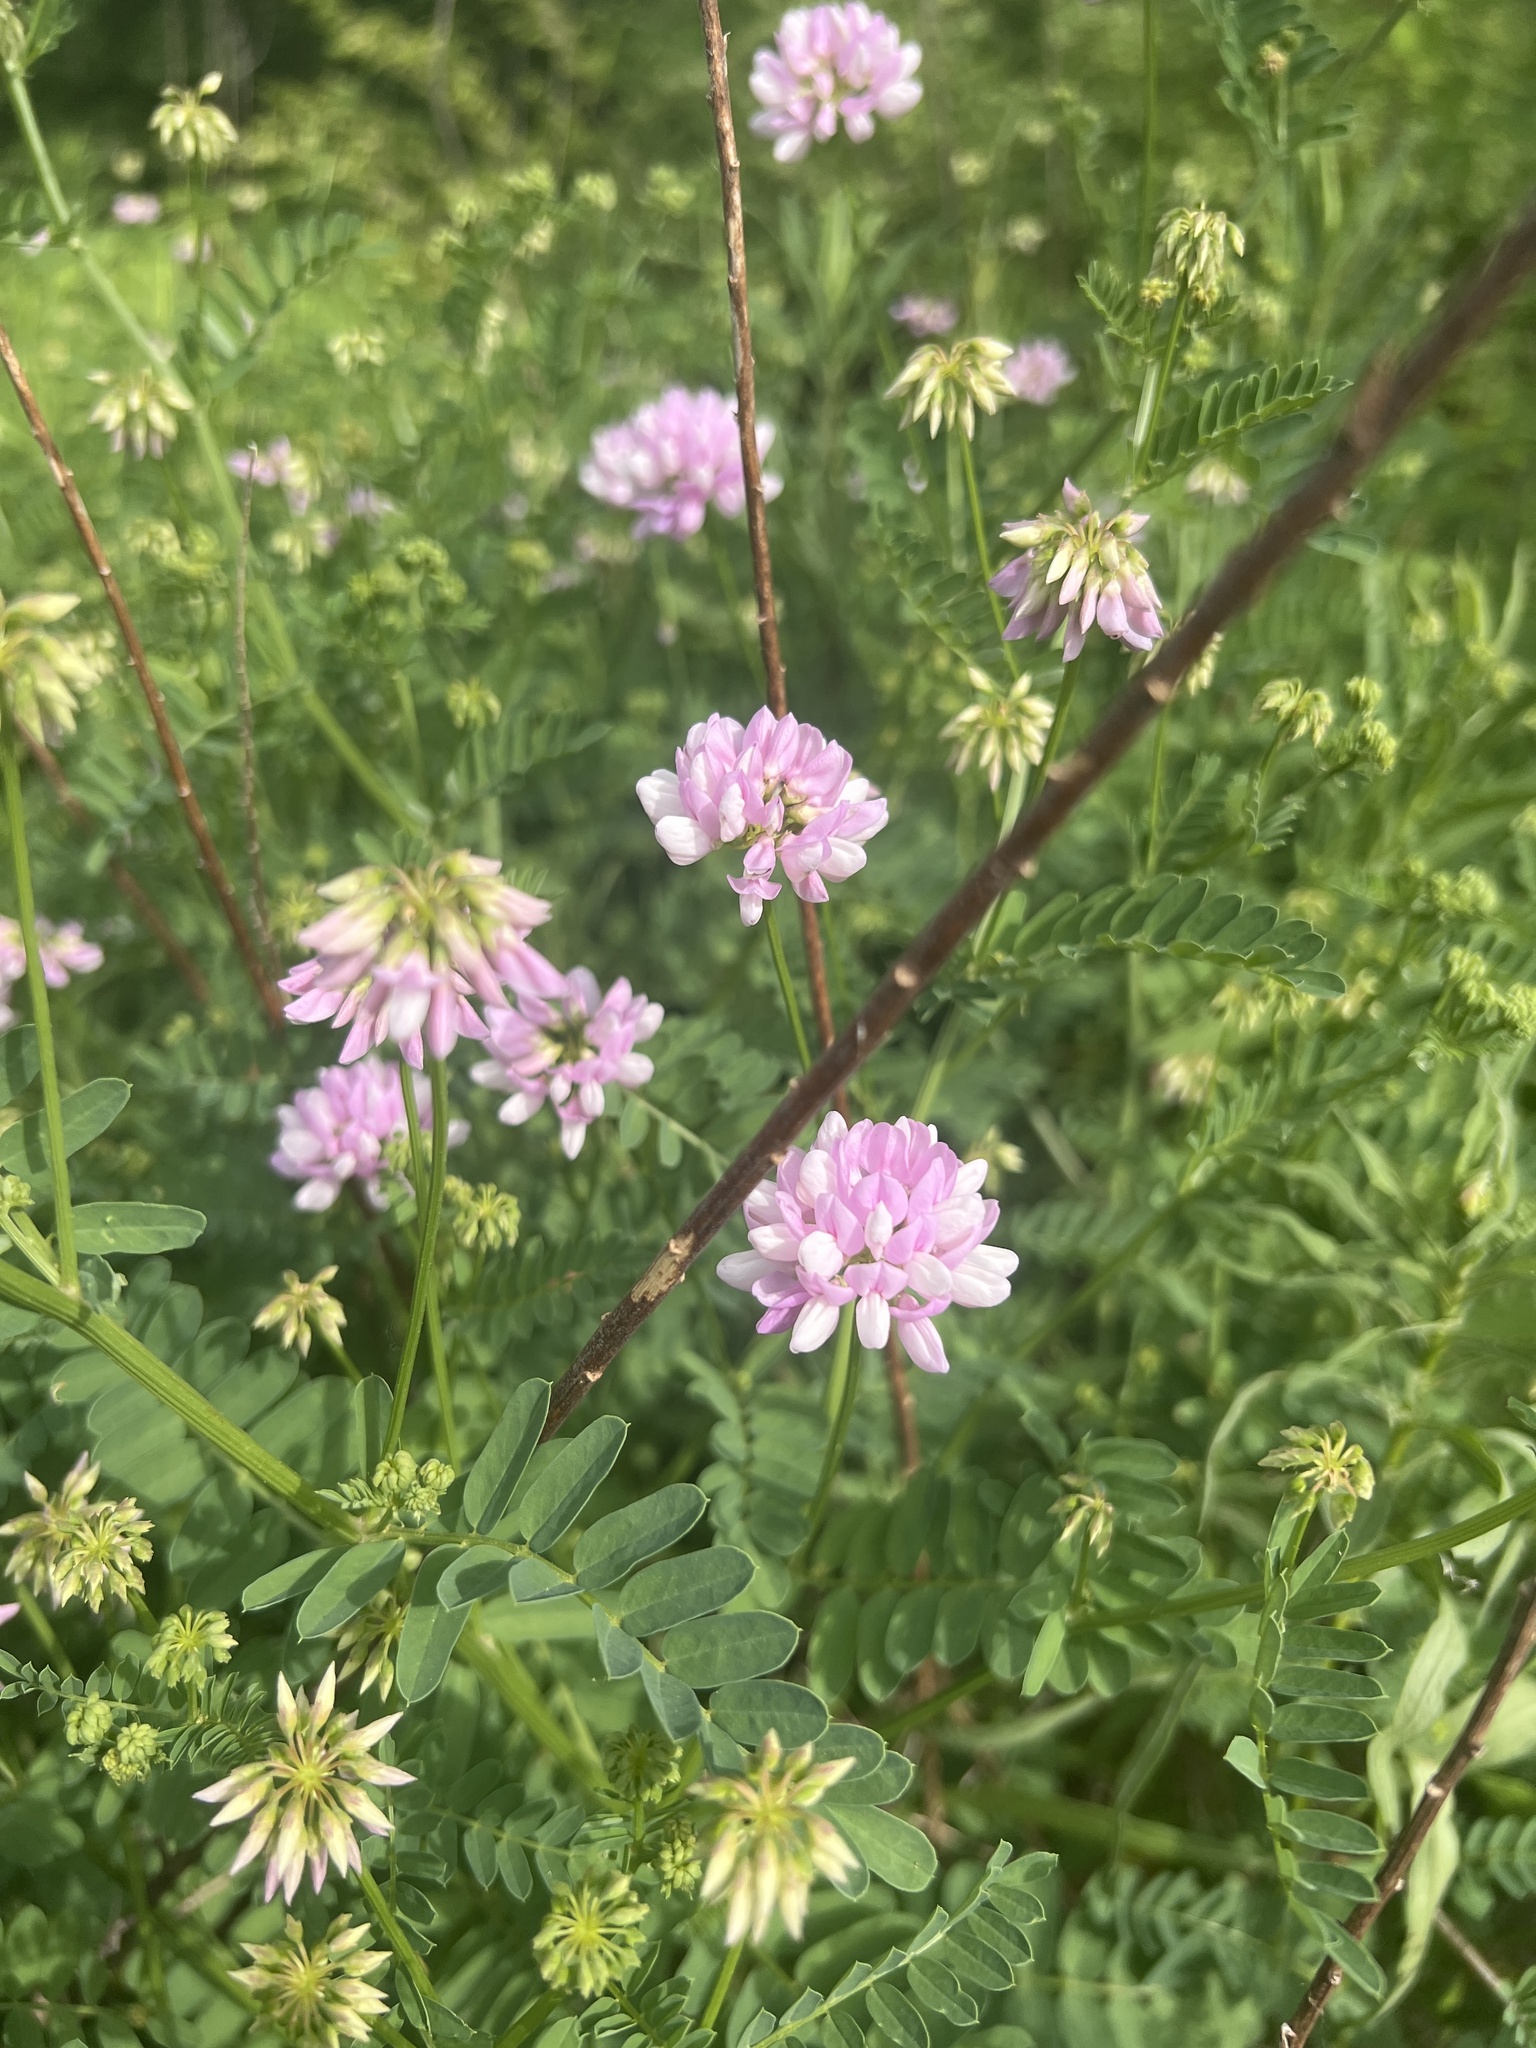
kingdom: Plantae
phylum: Tracheophyta
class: Magnoliopsida
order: Fabales
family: Fabaceae
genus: Coronilla
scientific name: Coronilla varia
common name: Crownvetch
